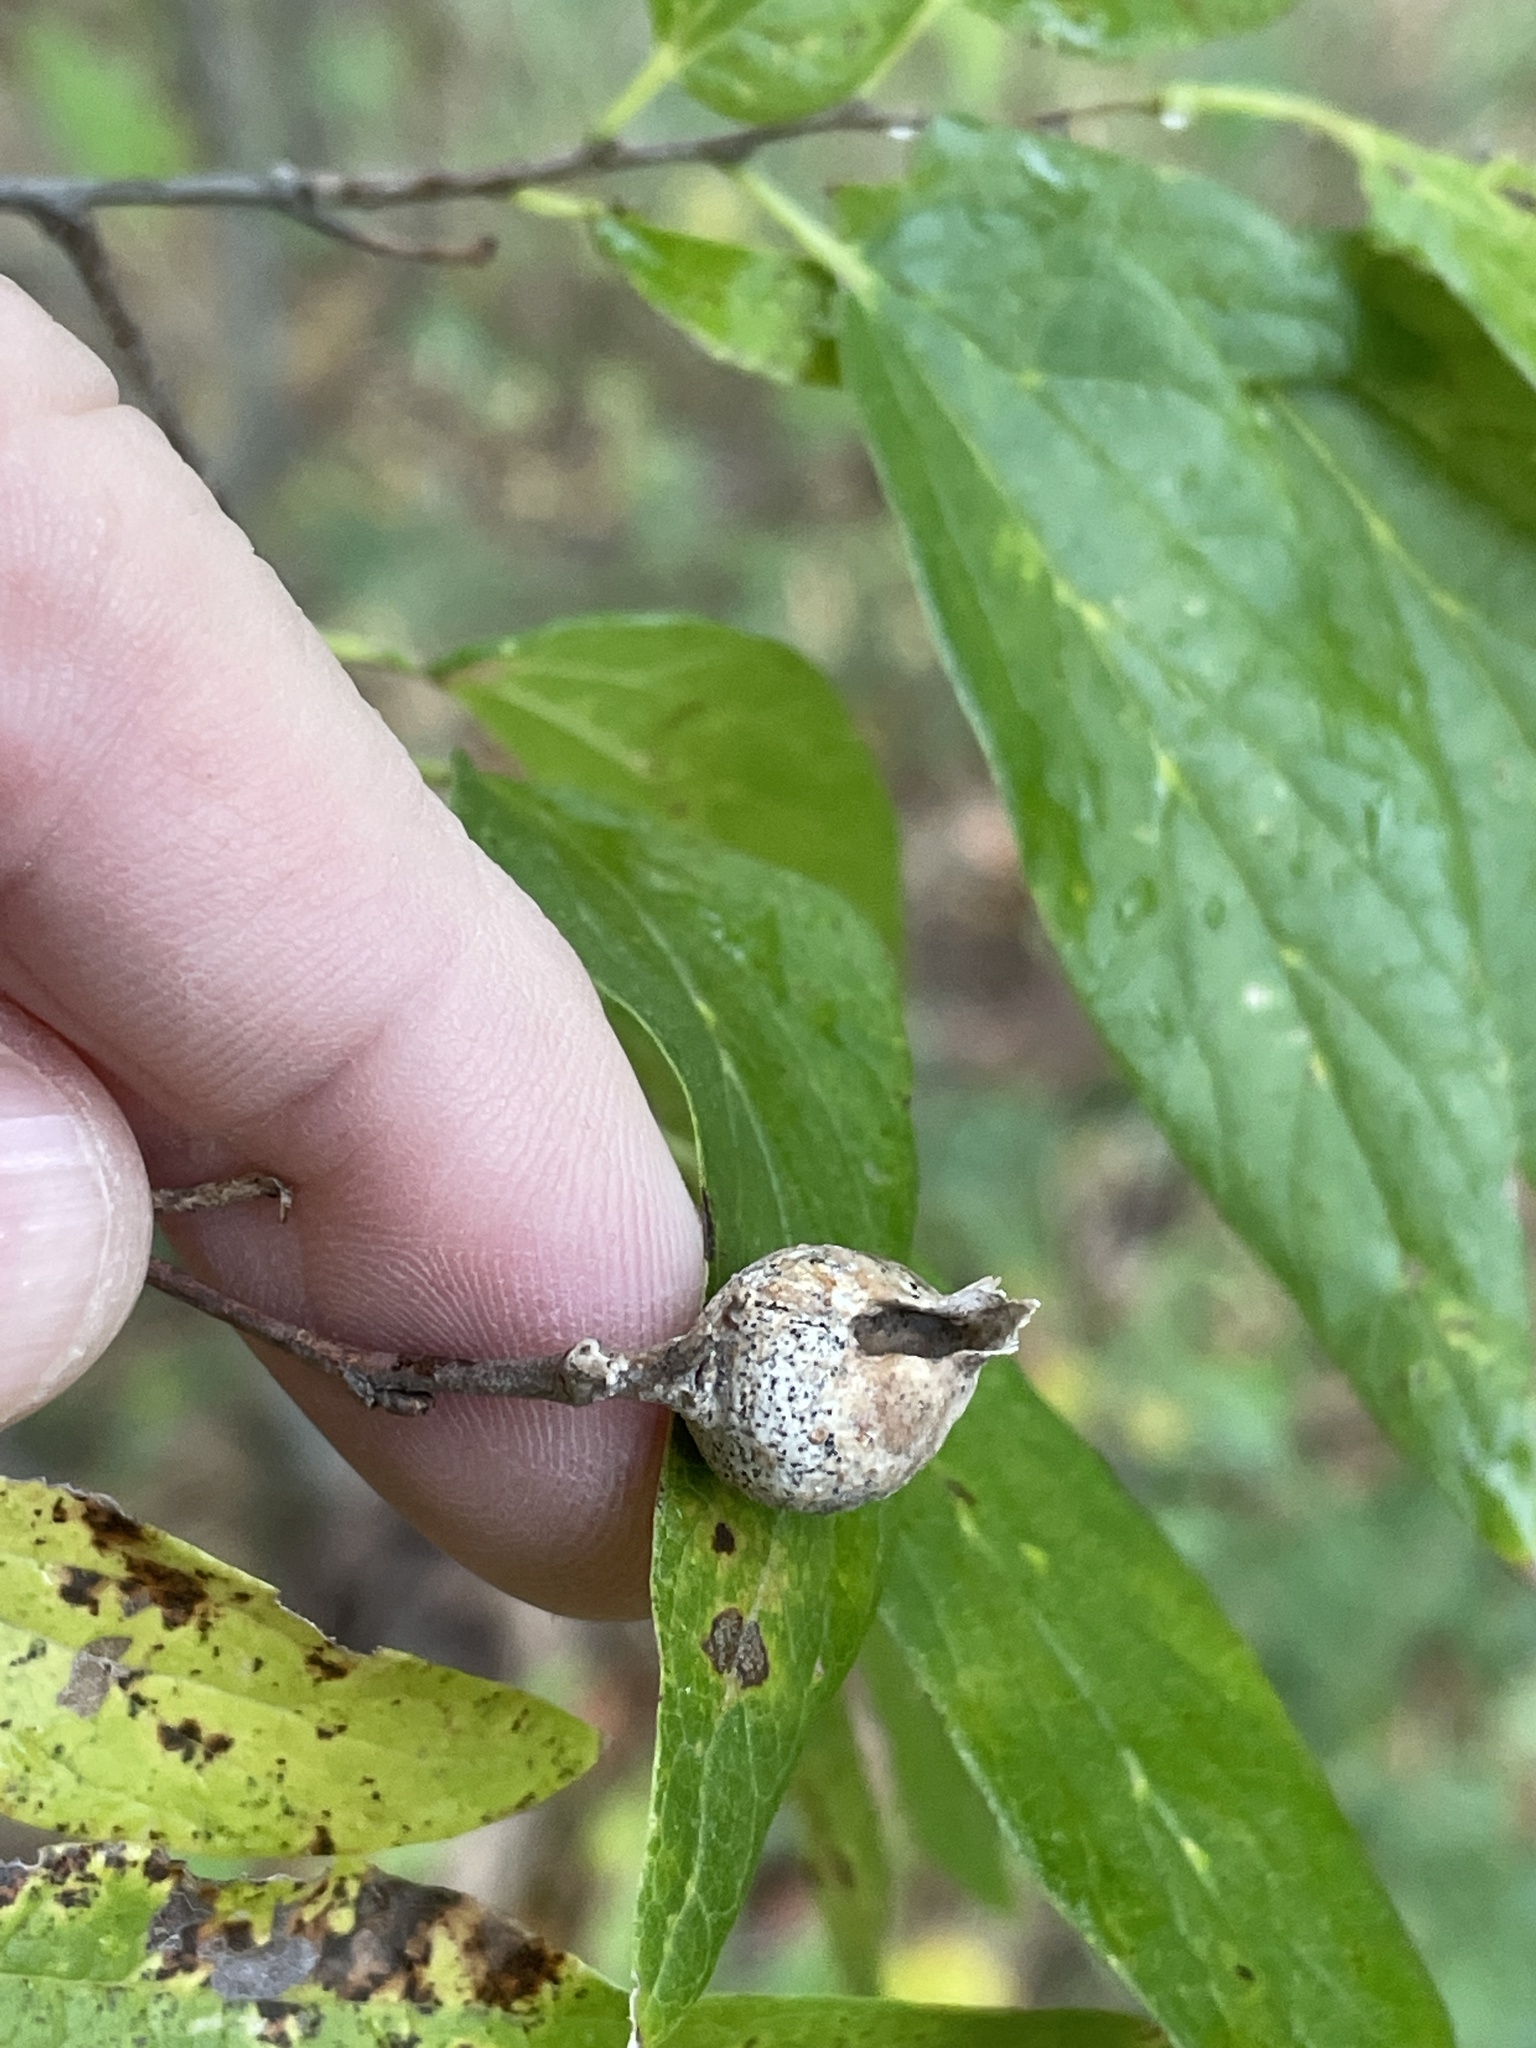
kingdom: Animalia
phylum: Arthropoda
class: Insecta
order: Hemiptera
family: Aphalaridae
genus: Pachypsylla
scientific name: Pachypsylla venusta
